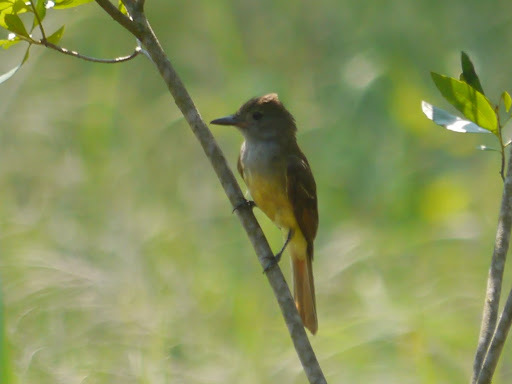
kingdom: Animalia
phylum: Chordata
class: Aves
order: Passeriformes
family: Tyrannidae
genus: Myiarchus
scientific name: Myiarchus crinitus
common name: Great crested flycatcher
